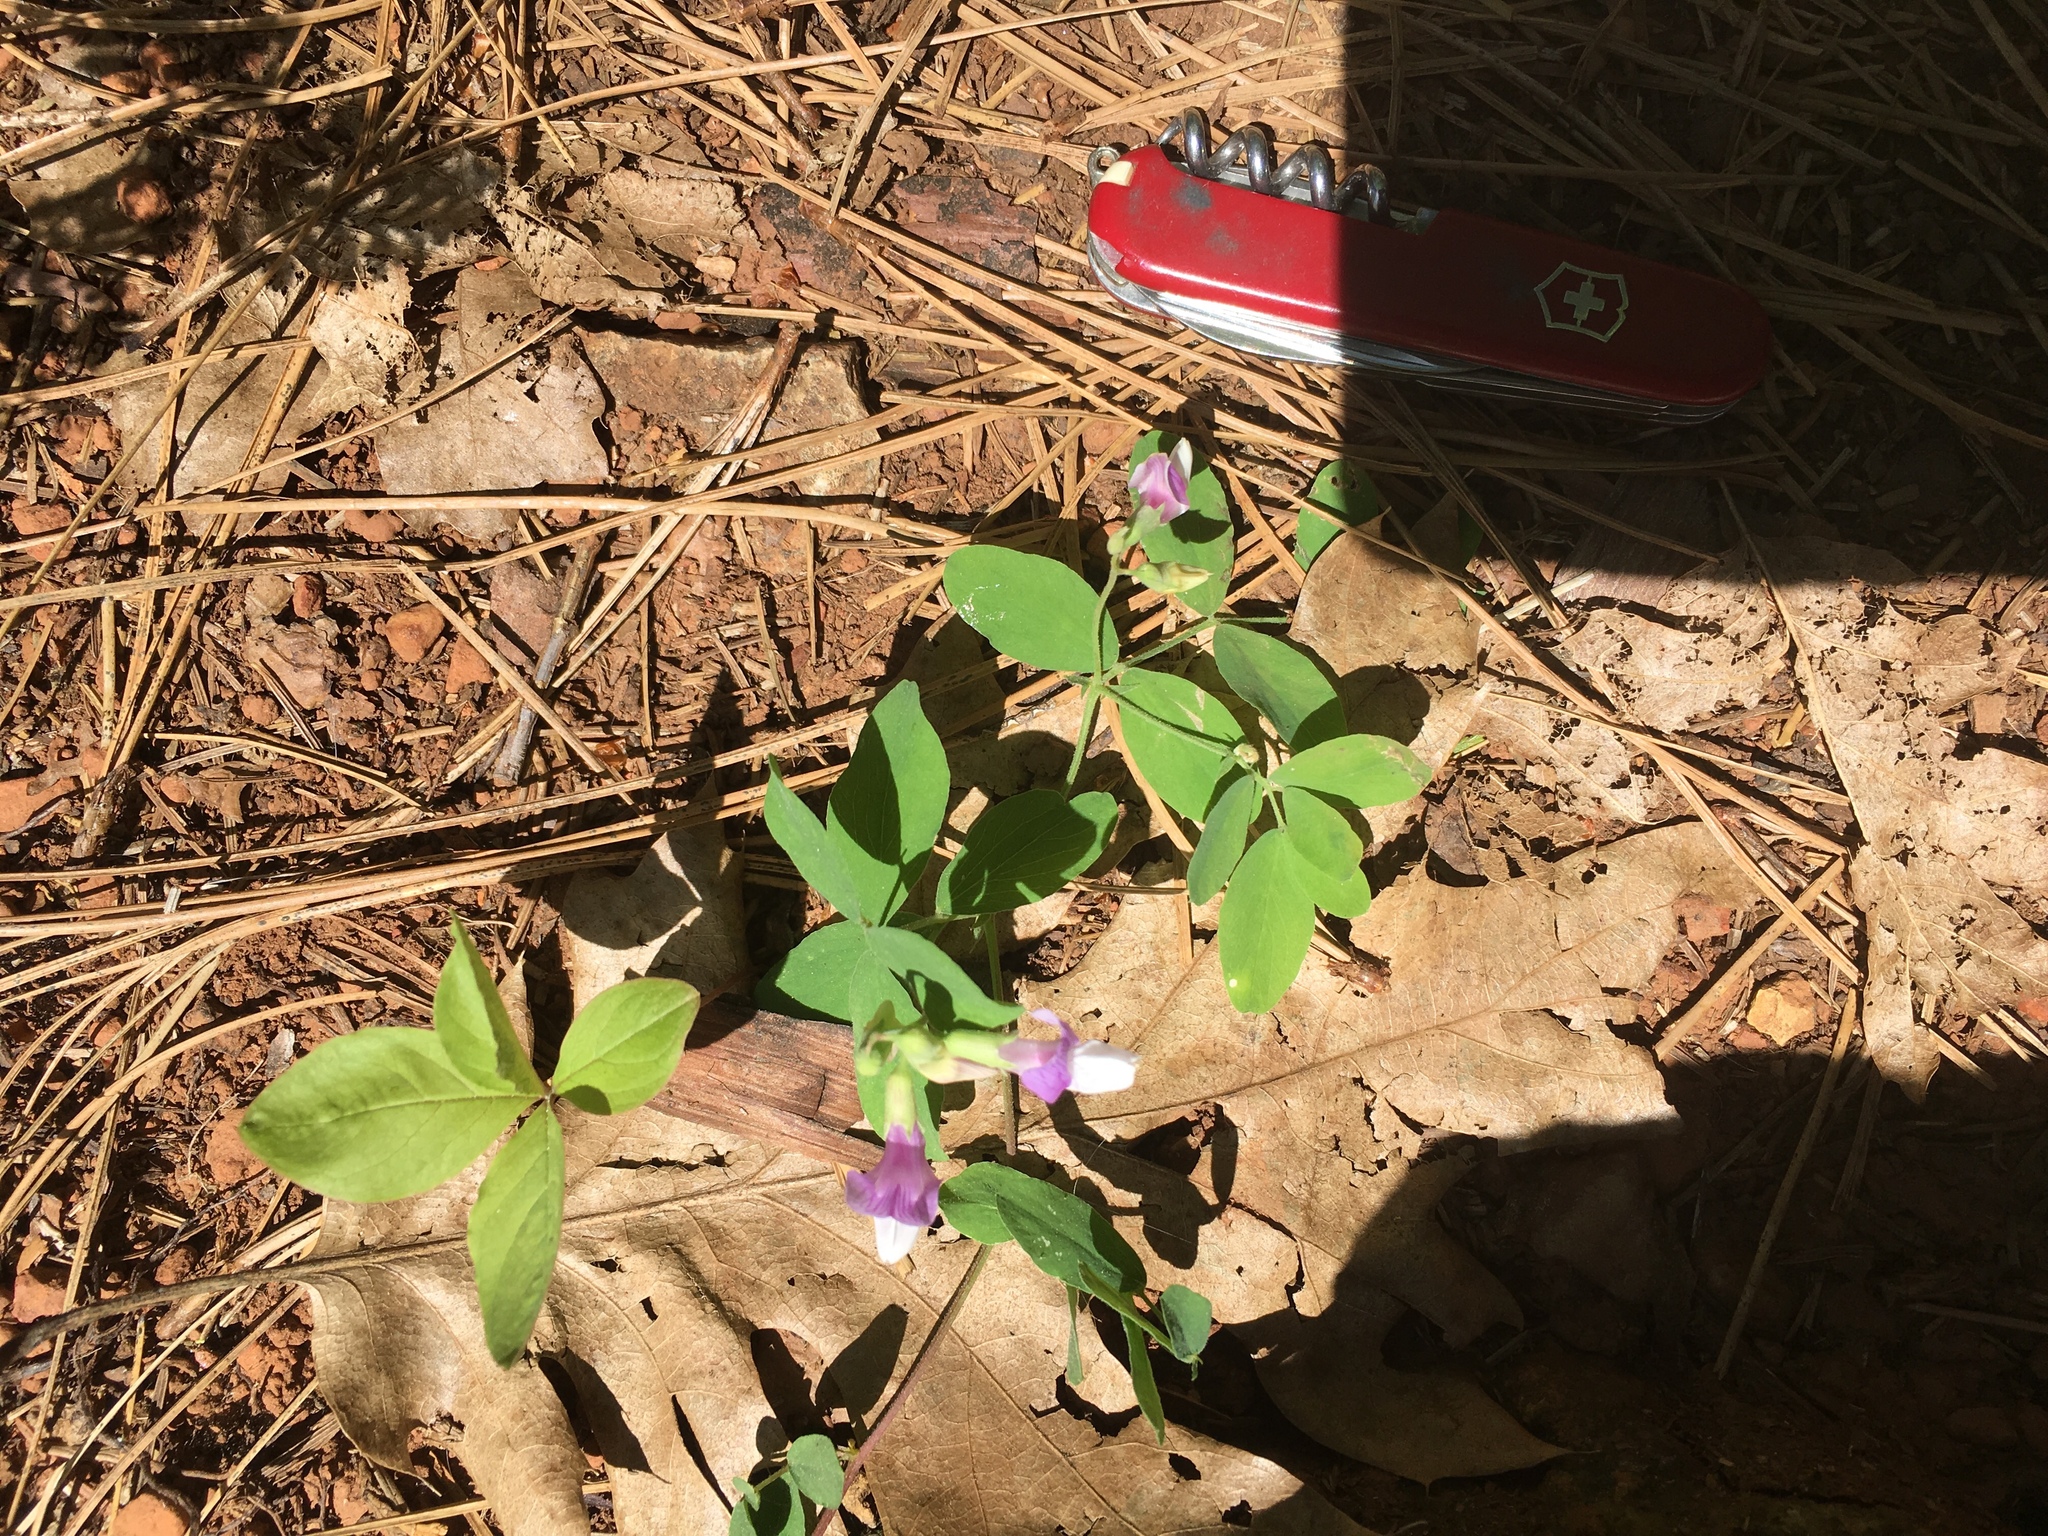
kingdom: Plantae
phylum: Tracheophyta
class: Magnoliopsida
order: Fabales
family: Fabaceae
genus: Lathyrus
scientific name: Lathyrus nevadensis
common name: Sierra nevada peavine
